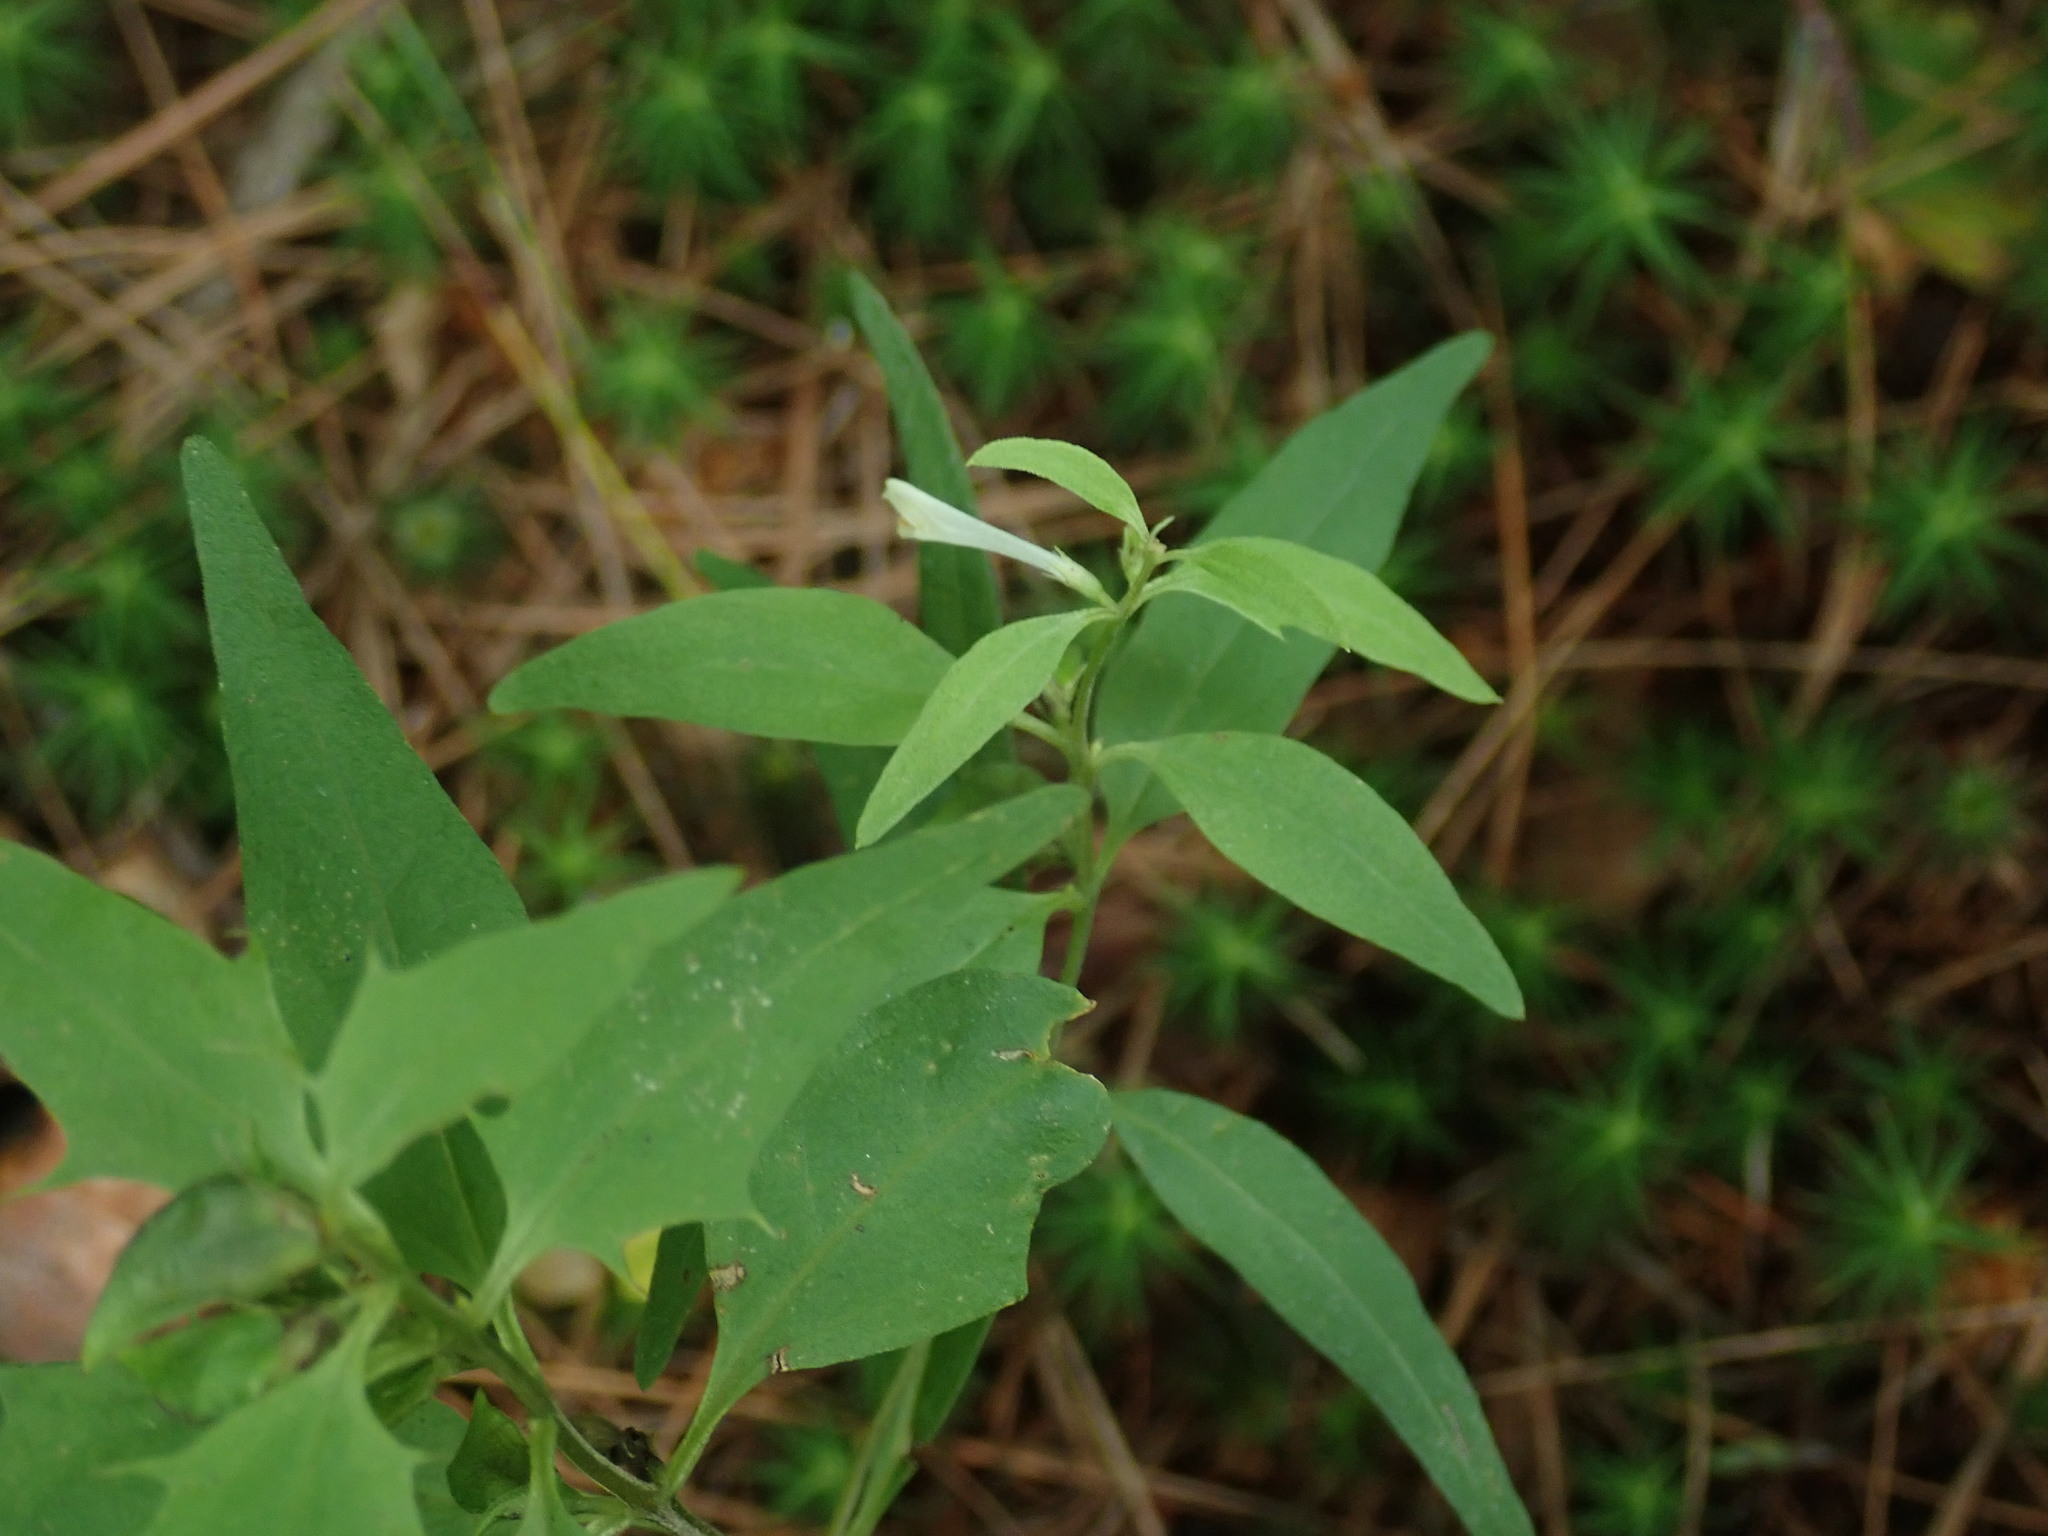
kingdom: Plantae
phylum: Tracheophyta
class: Magnoliopsida
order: Lamiales
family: Orobanchaceae
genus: Melampyrum
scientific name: Melampyrum lineare
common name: American cow-wheat
